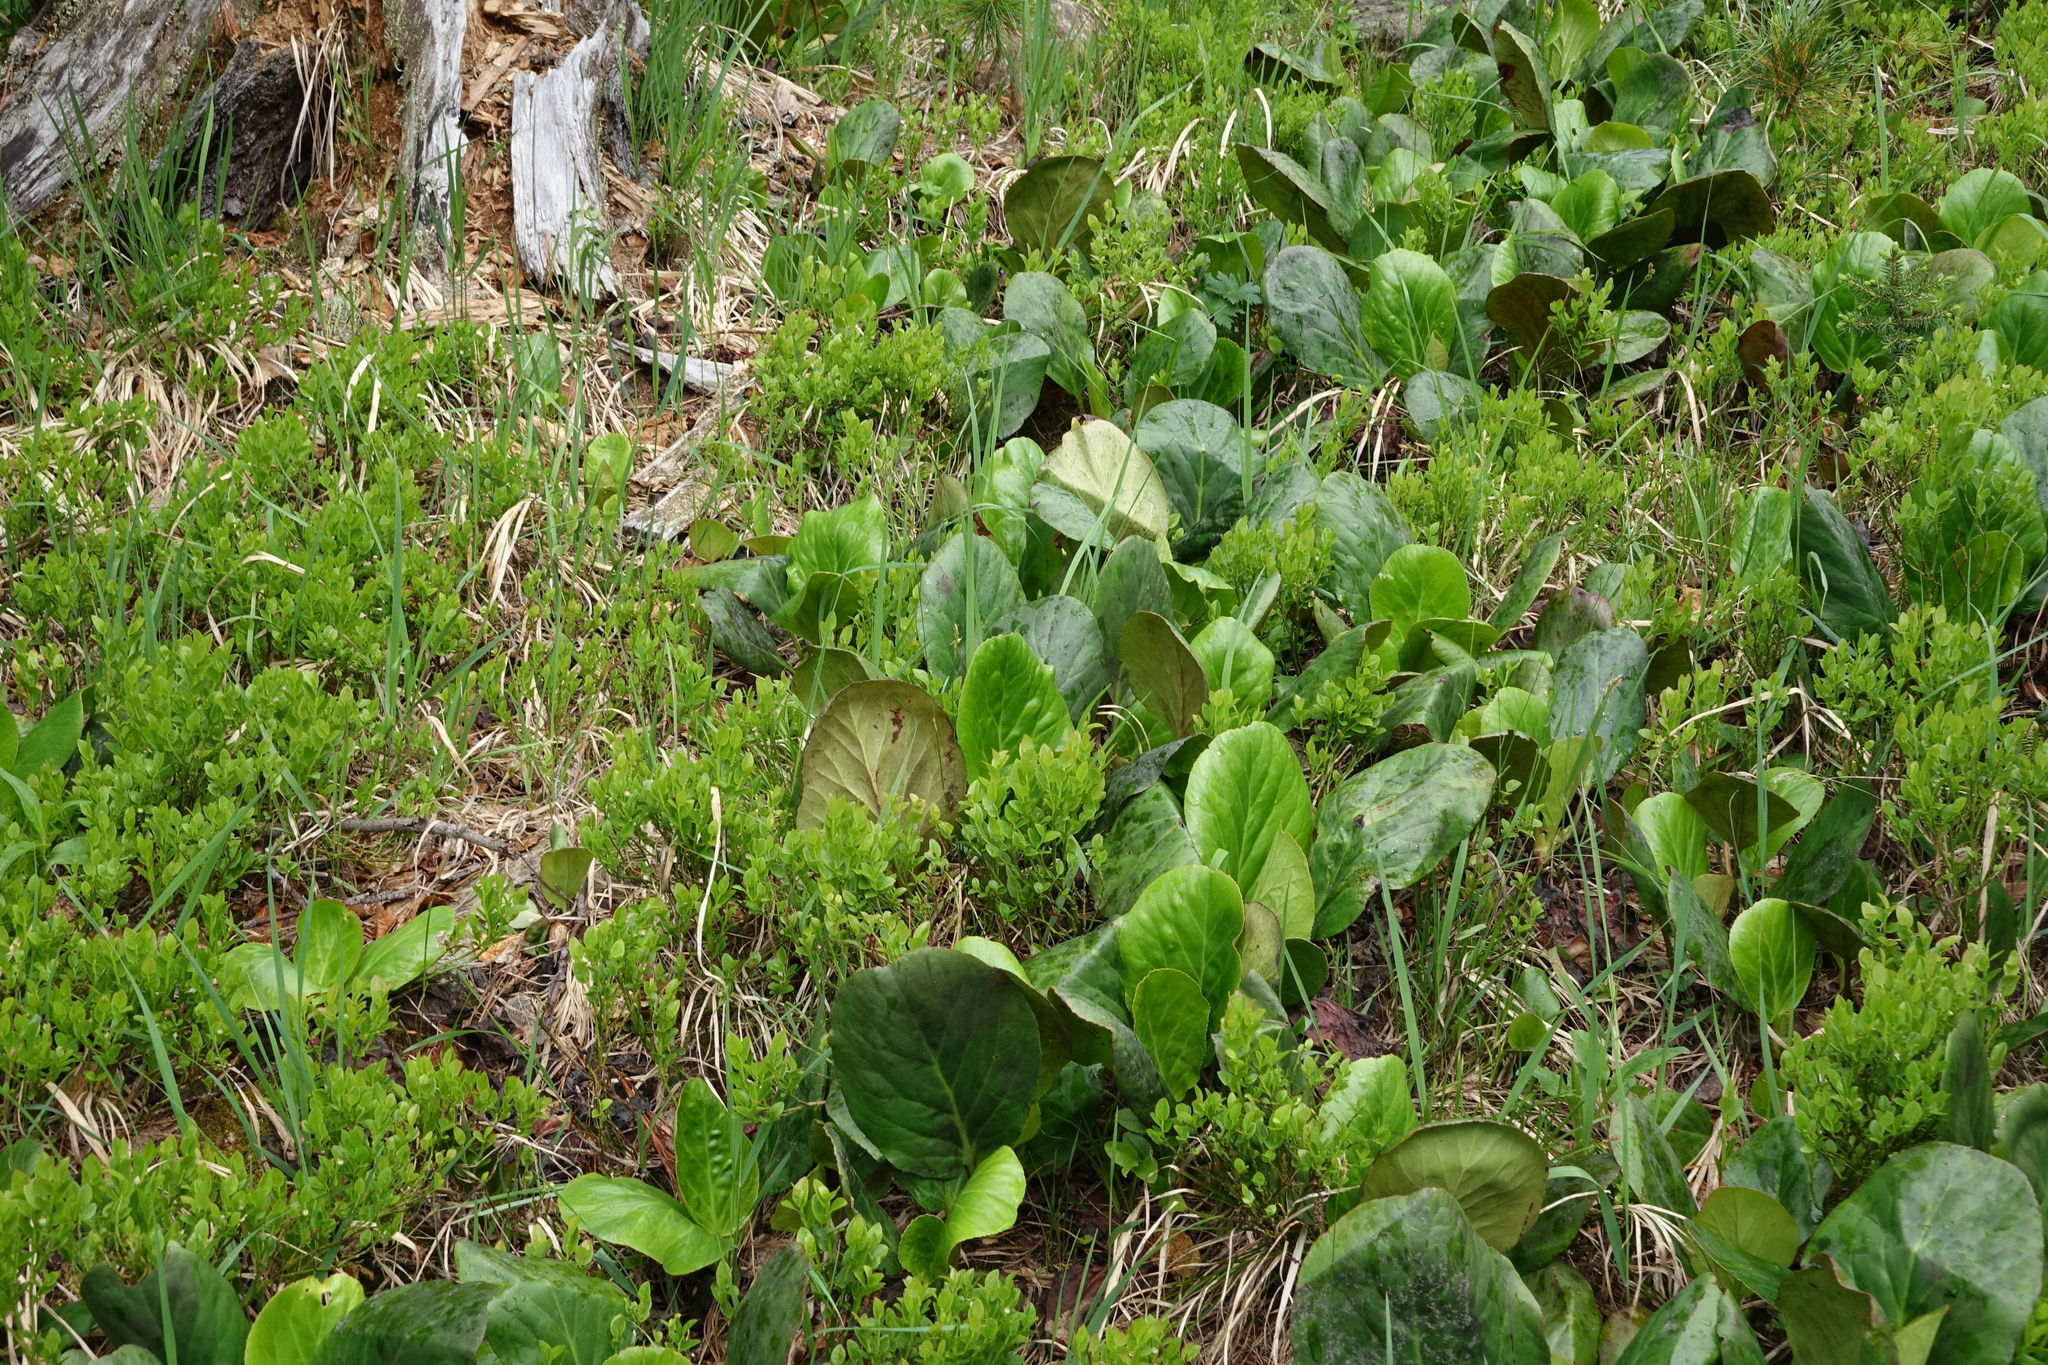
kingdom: Plantae
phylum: Tracheophyta
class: Magnoliopsida
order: Saxifragales
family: Saxifragaceae
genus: Bergenia
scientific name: Bergenia crassifolia
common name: Elephant-ears
